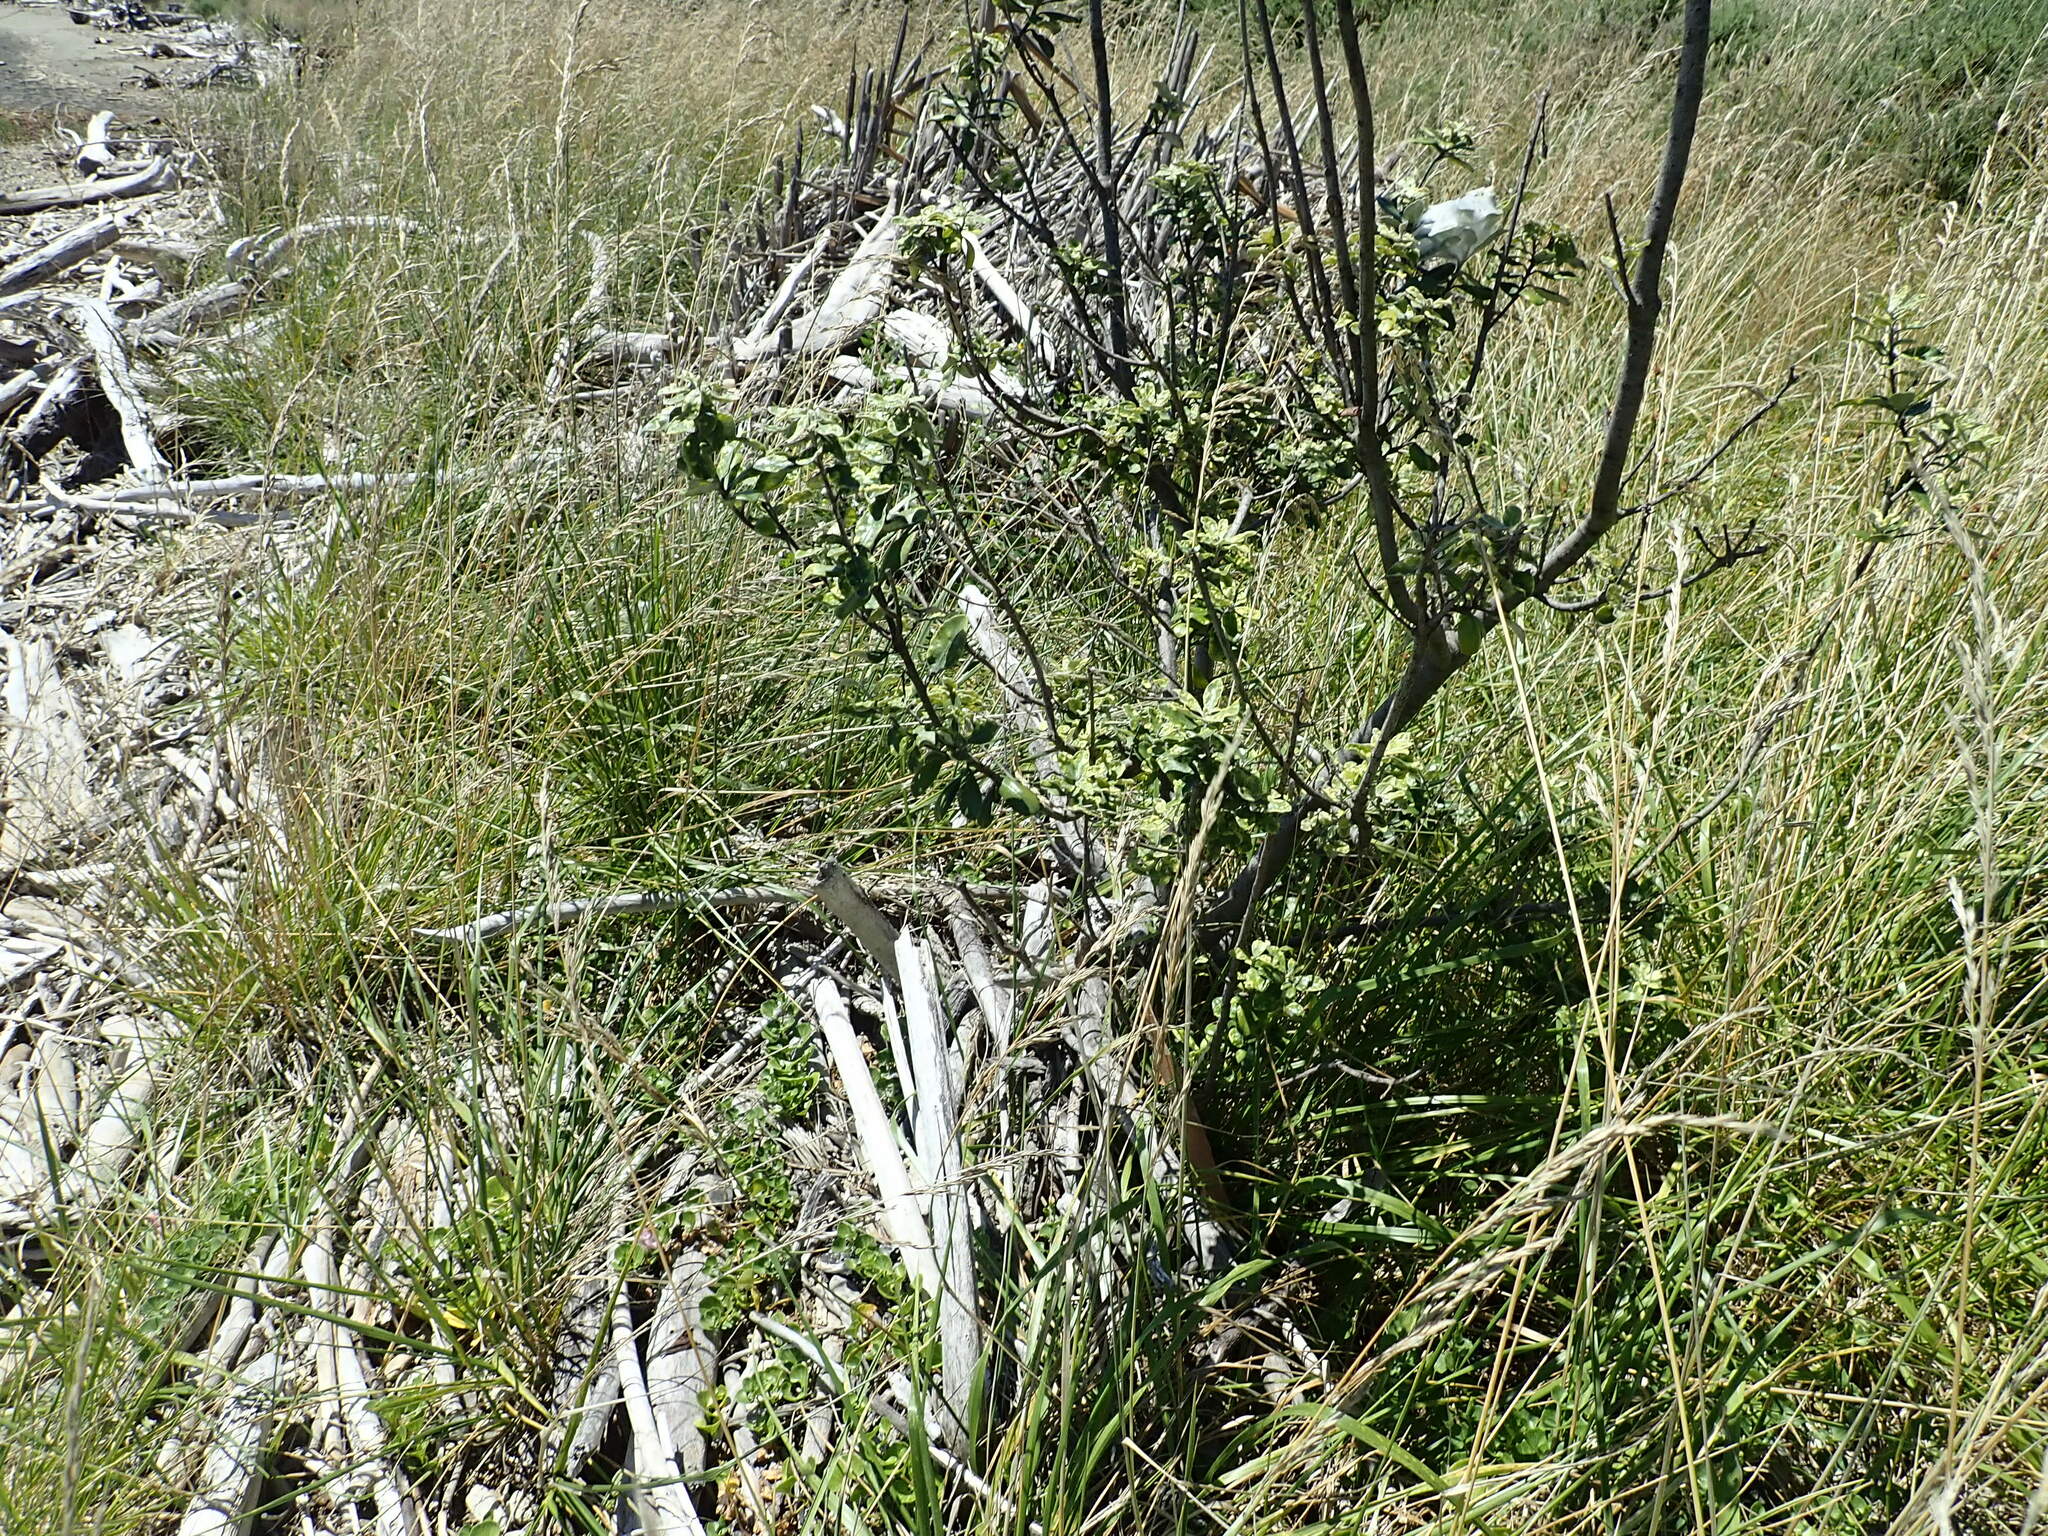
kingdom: Plantae
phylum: Tracheophyta
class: Magnoliopsida
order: Apiales
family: Pittosporaceae
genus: Pittosporum
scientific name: Pittosporum crassifolium
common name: Karo
